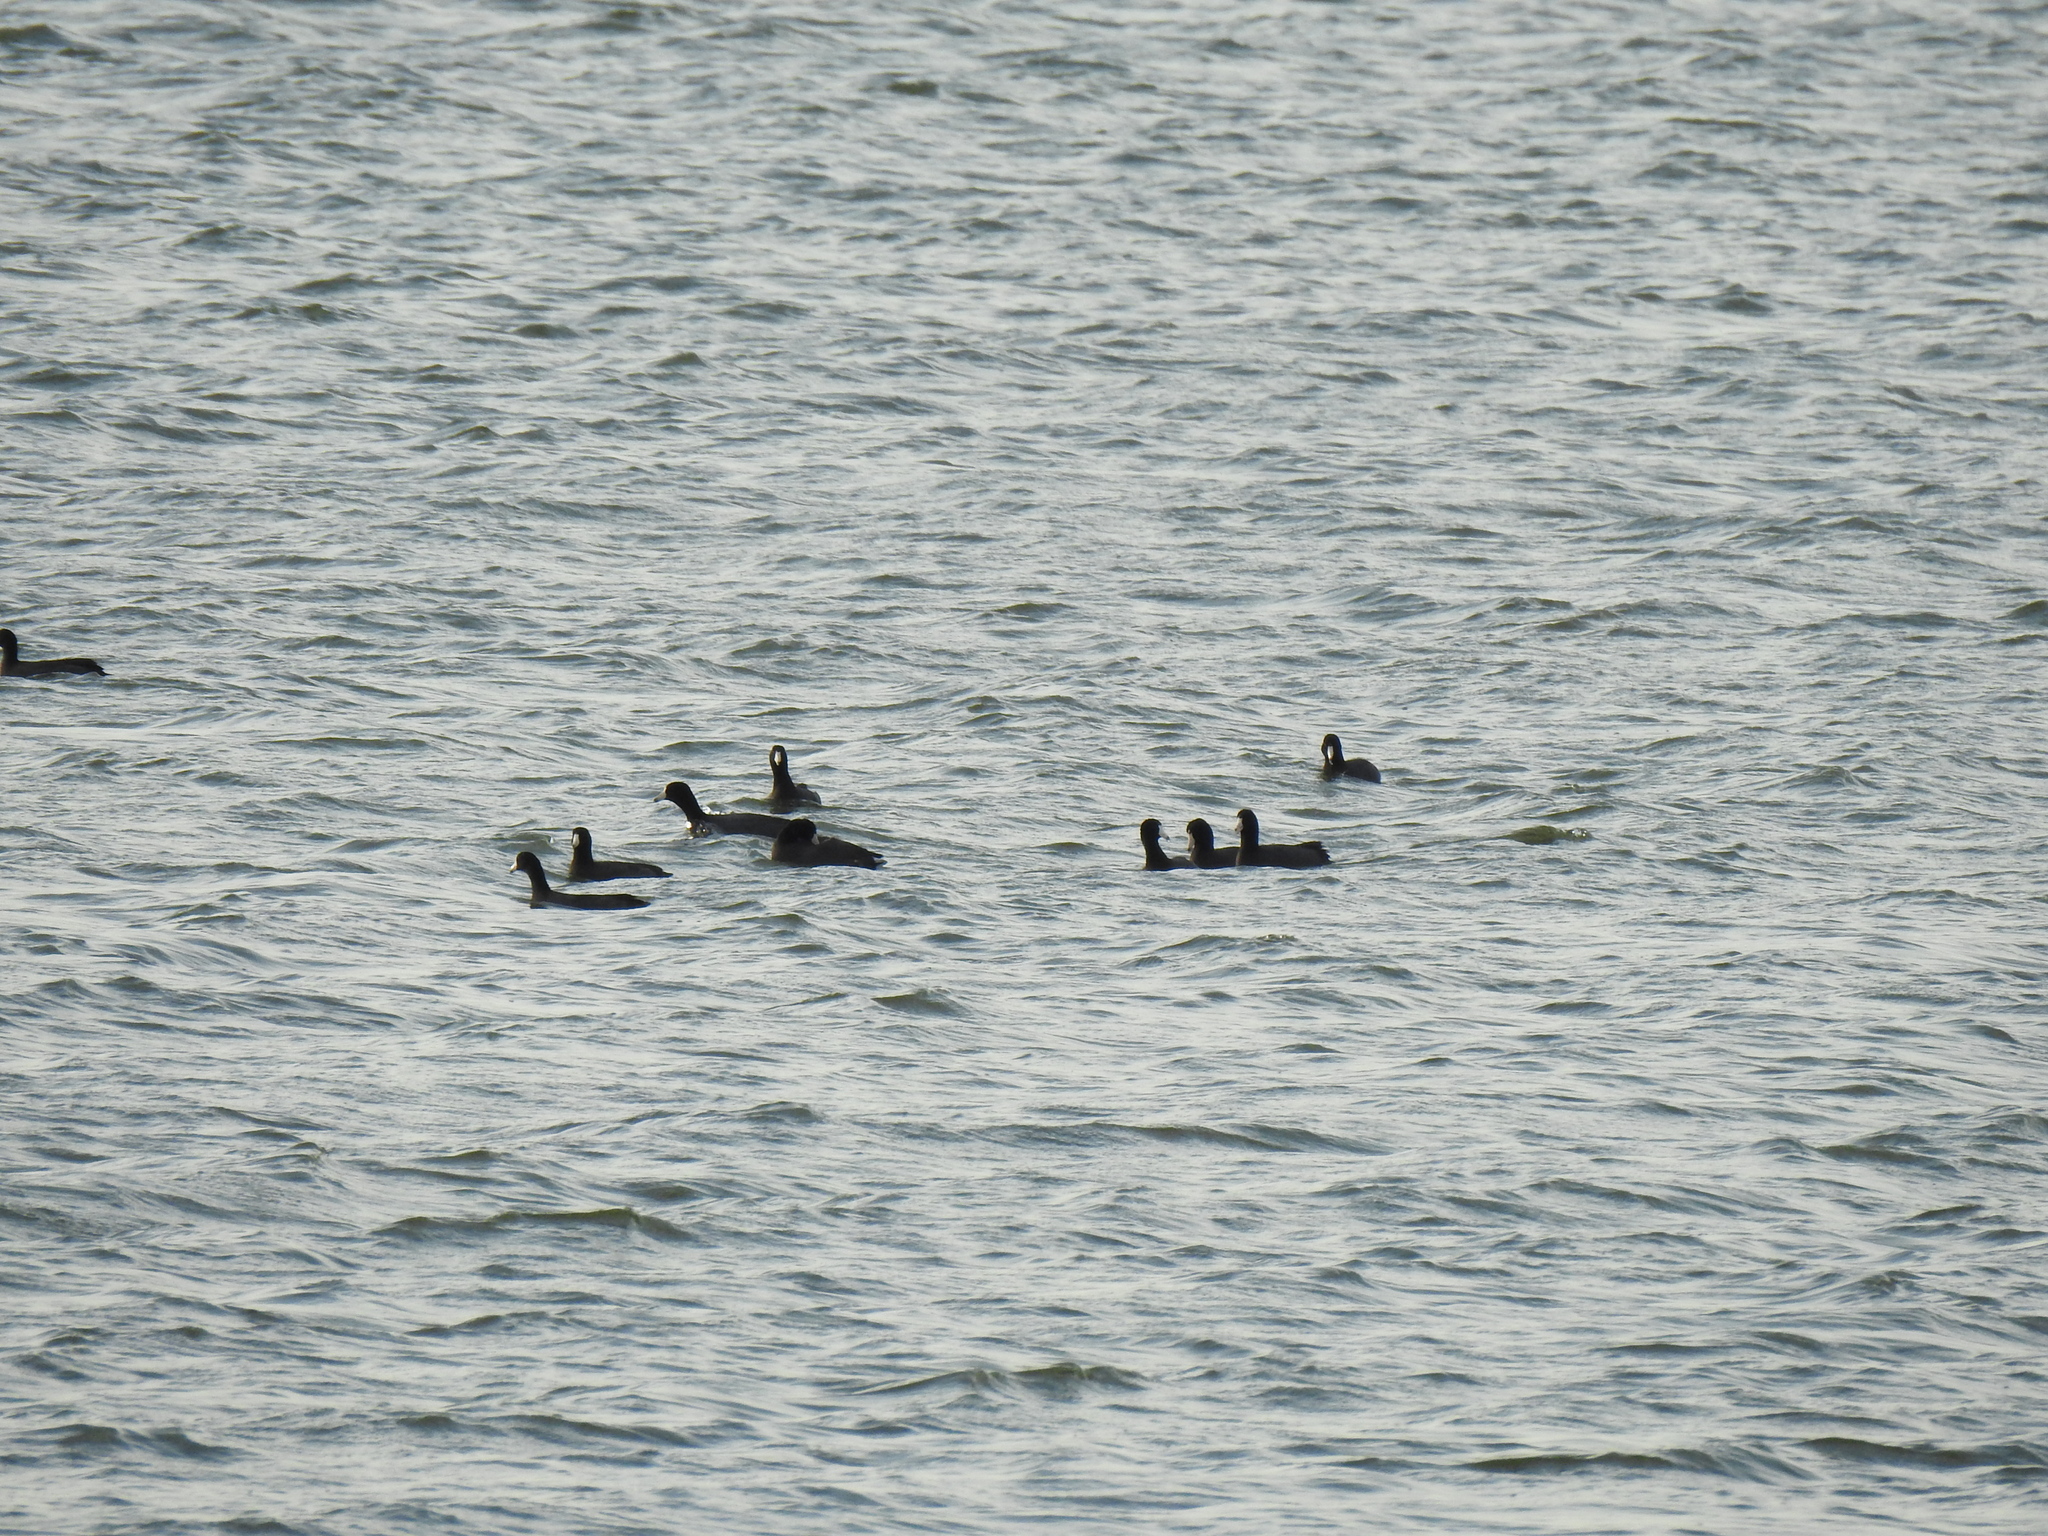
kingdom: Animalia
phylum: Chordata
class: Aves
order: Gruiformes
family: Rallidae
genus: Fulica
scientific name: Fulica americana
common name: American coot
